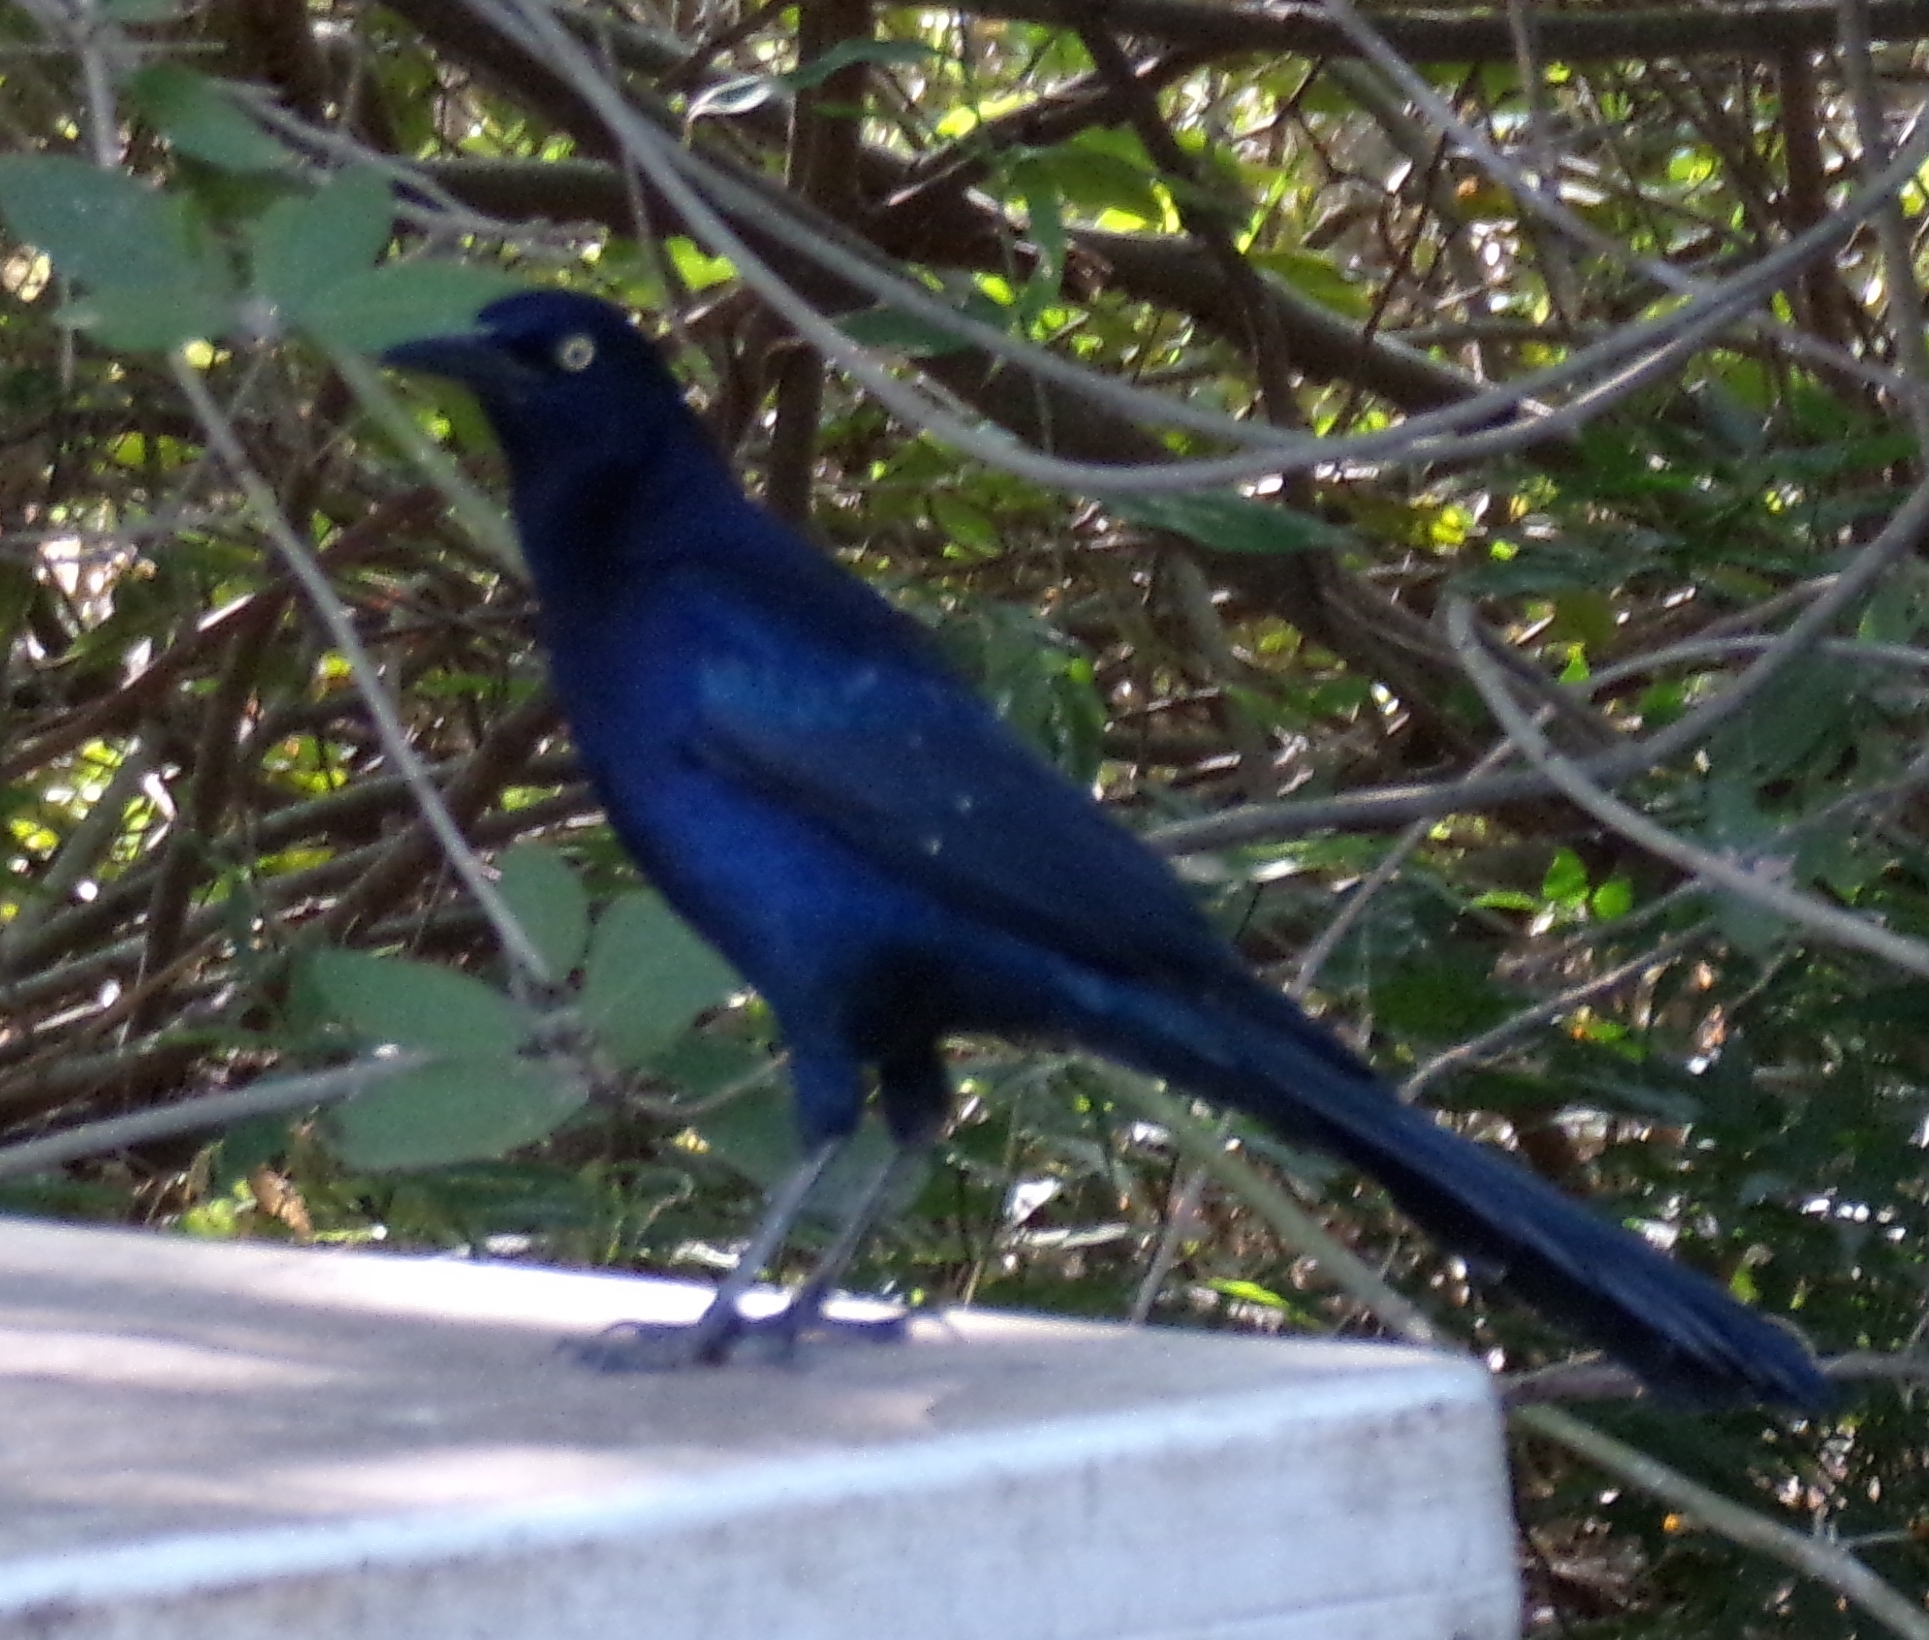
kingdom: Animalia
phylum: Chordata
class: Aves
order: Passeriformes
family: Icteridae
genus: Quiscalus
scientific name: Quiscalus mexicanus
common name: Great-tailed grackle
